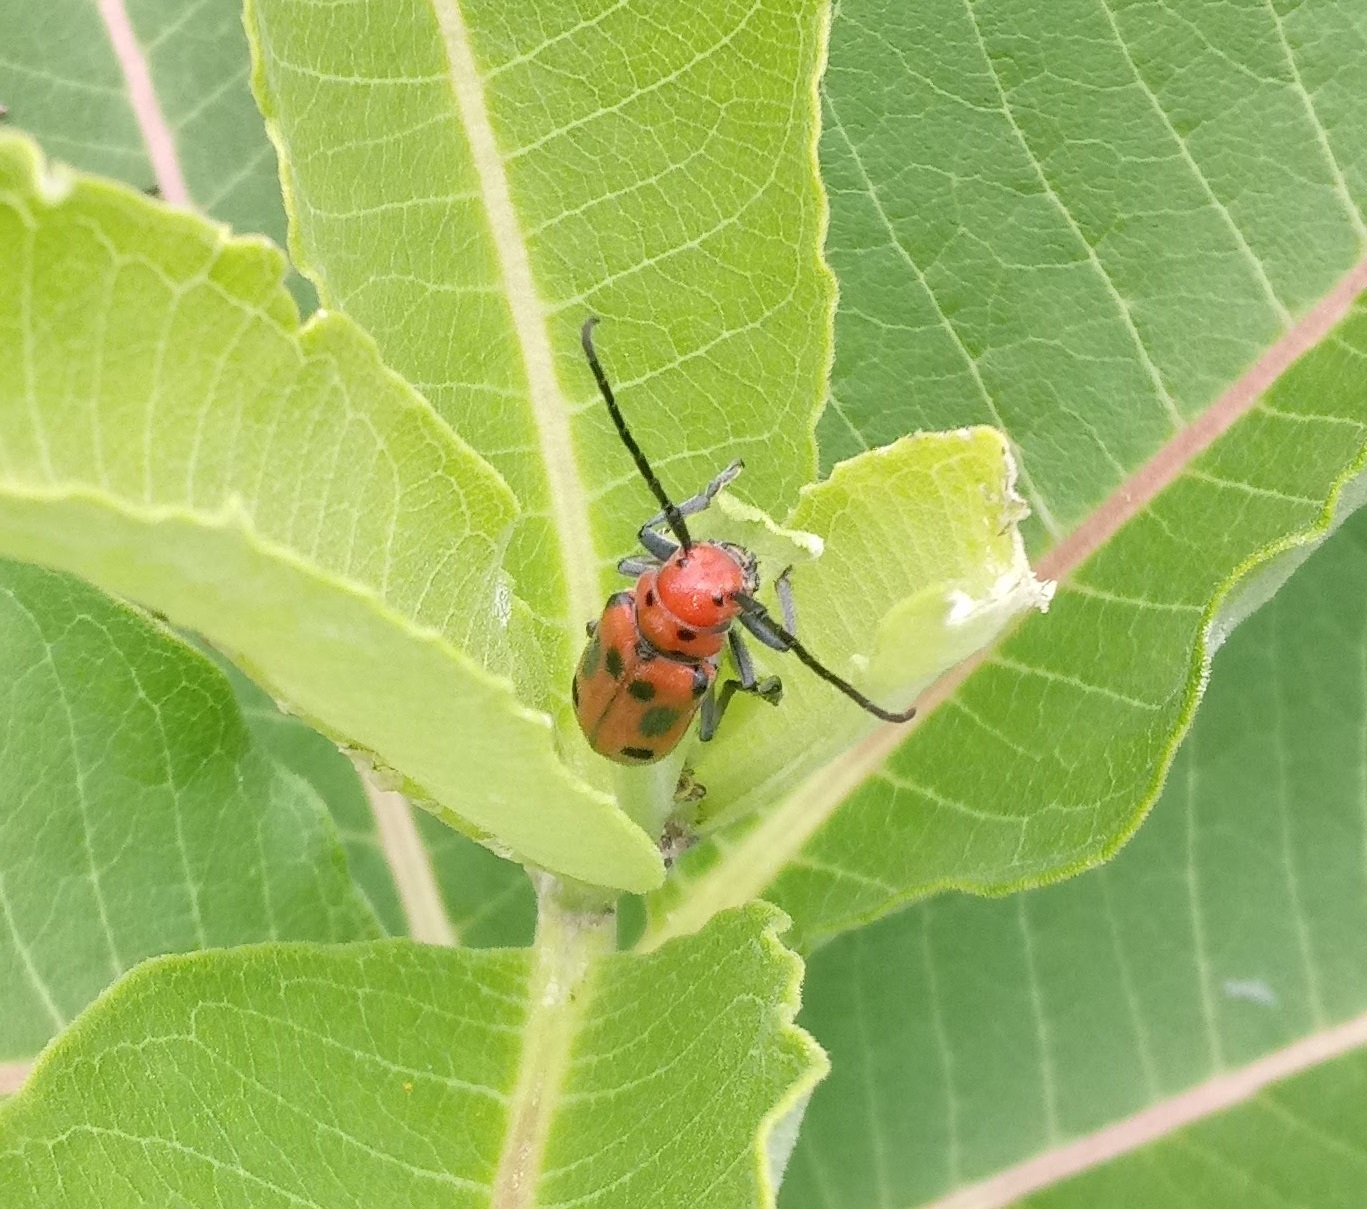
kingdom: Animalia
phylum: Arthropoda
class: Insecta
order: Coleoptera
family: Cerambycidae
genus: Tetraopes
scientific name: Tetraopes tetrophthalmus
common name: Red milkweed beetle
